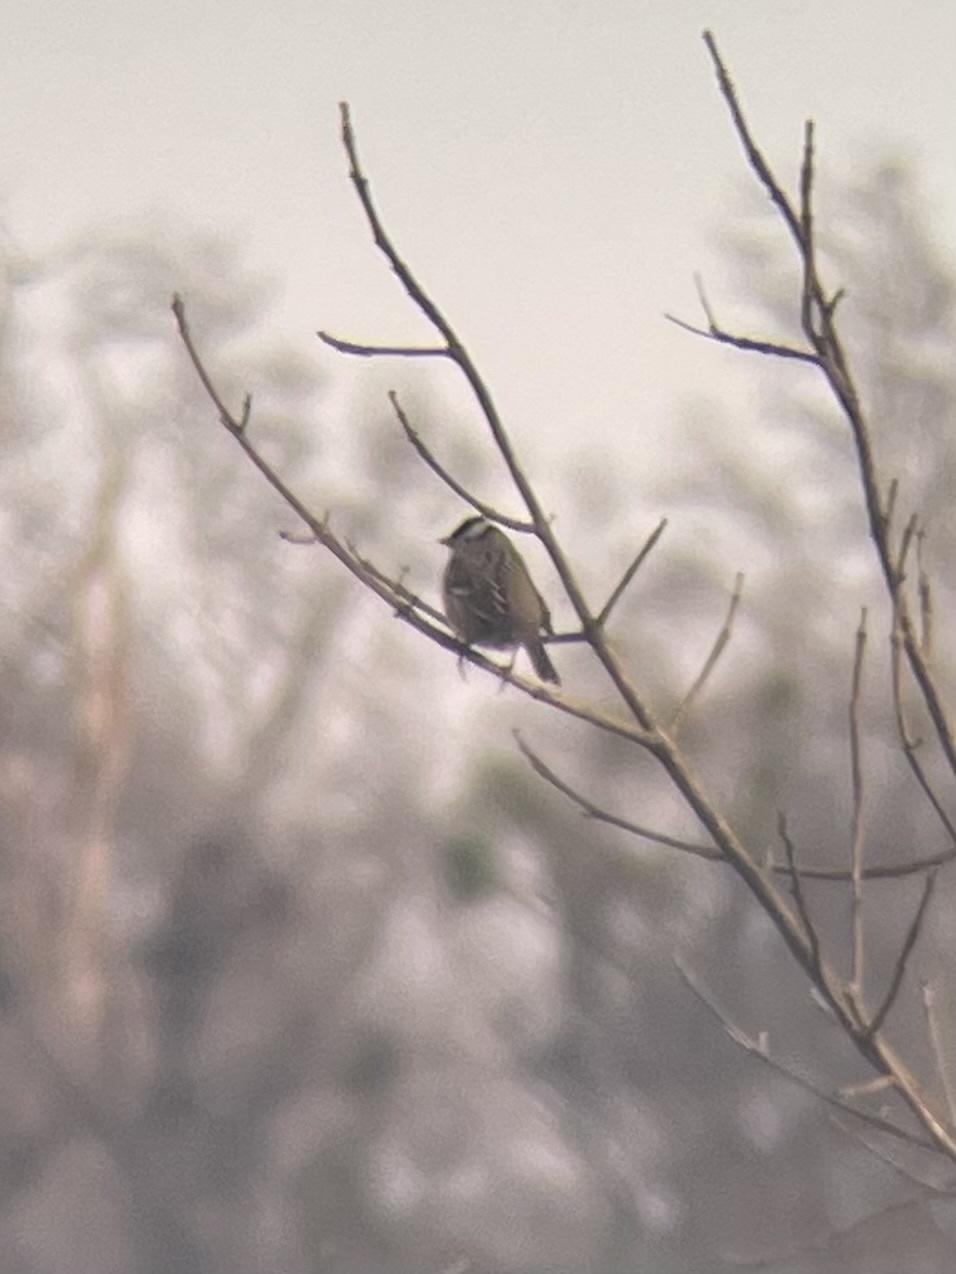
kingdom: Animalia
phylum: Chordata
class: Aves
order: Passeriformes
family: Passerellidae
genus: Zonotrichia
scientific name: Zonotrichia leucophrys
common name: White-crowned sparrow
